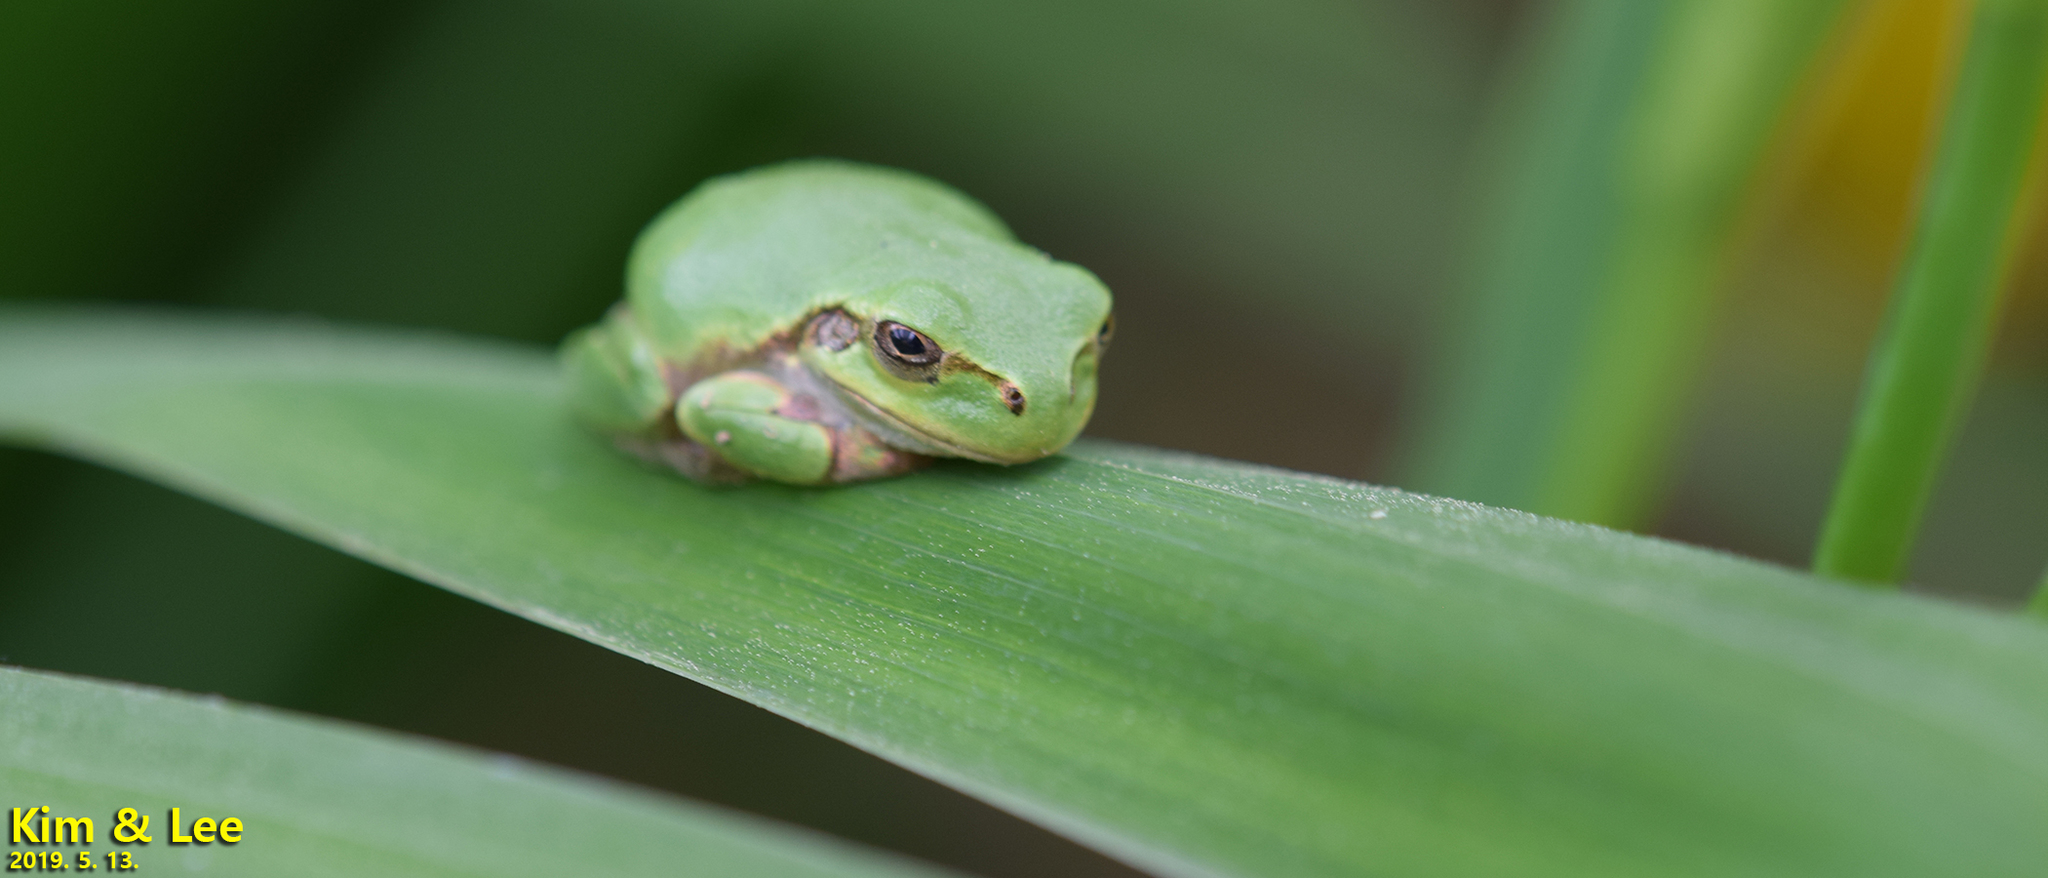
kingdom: Animalia
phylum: Chordata
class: Amphibia
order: Anura
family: Hylidae
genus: Dryophytes
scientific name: Dryophytes japonicus
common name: Japanese treefrog
